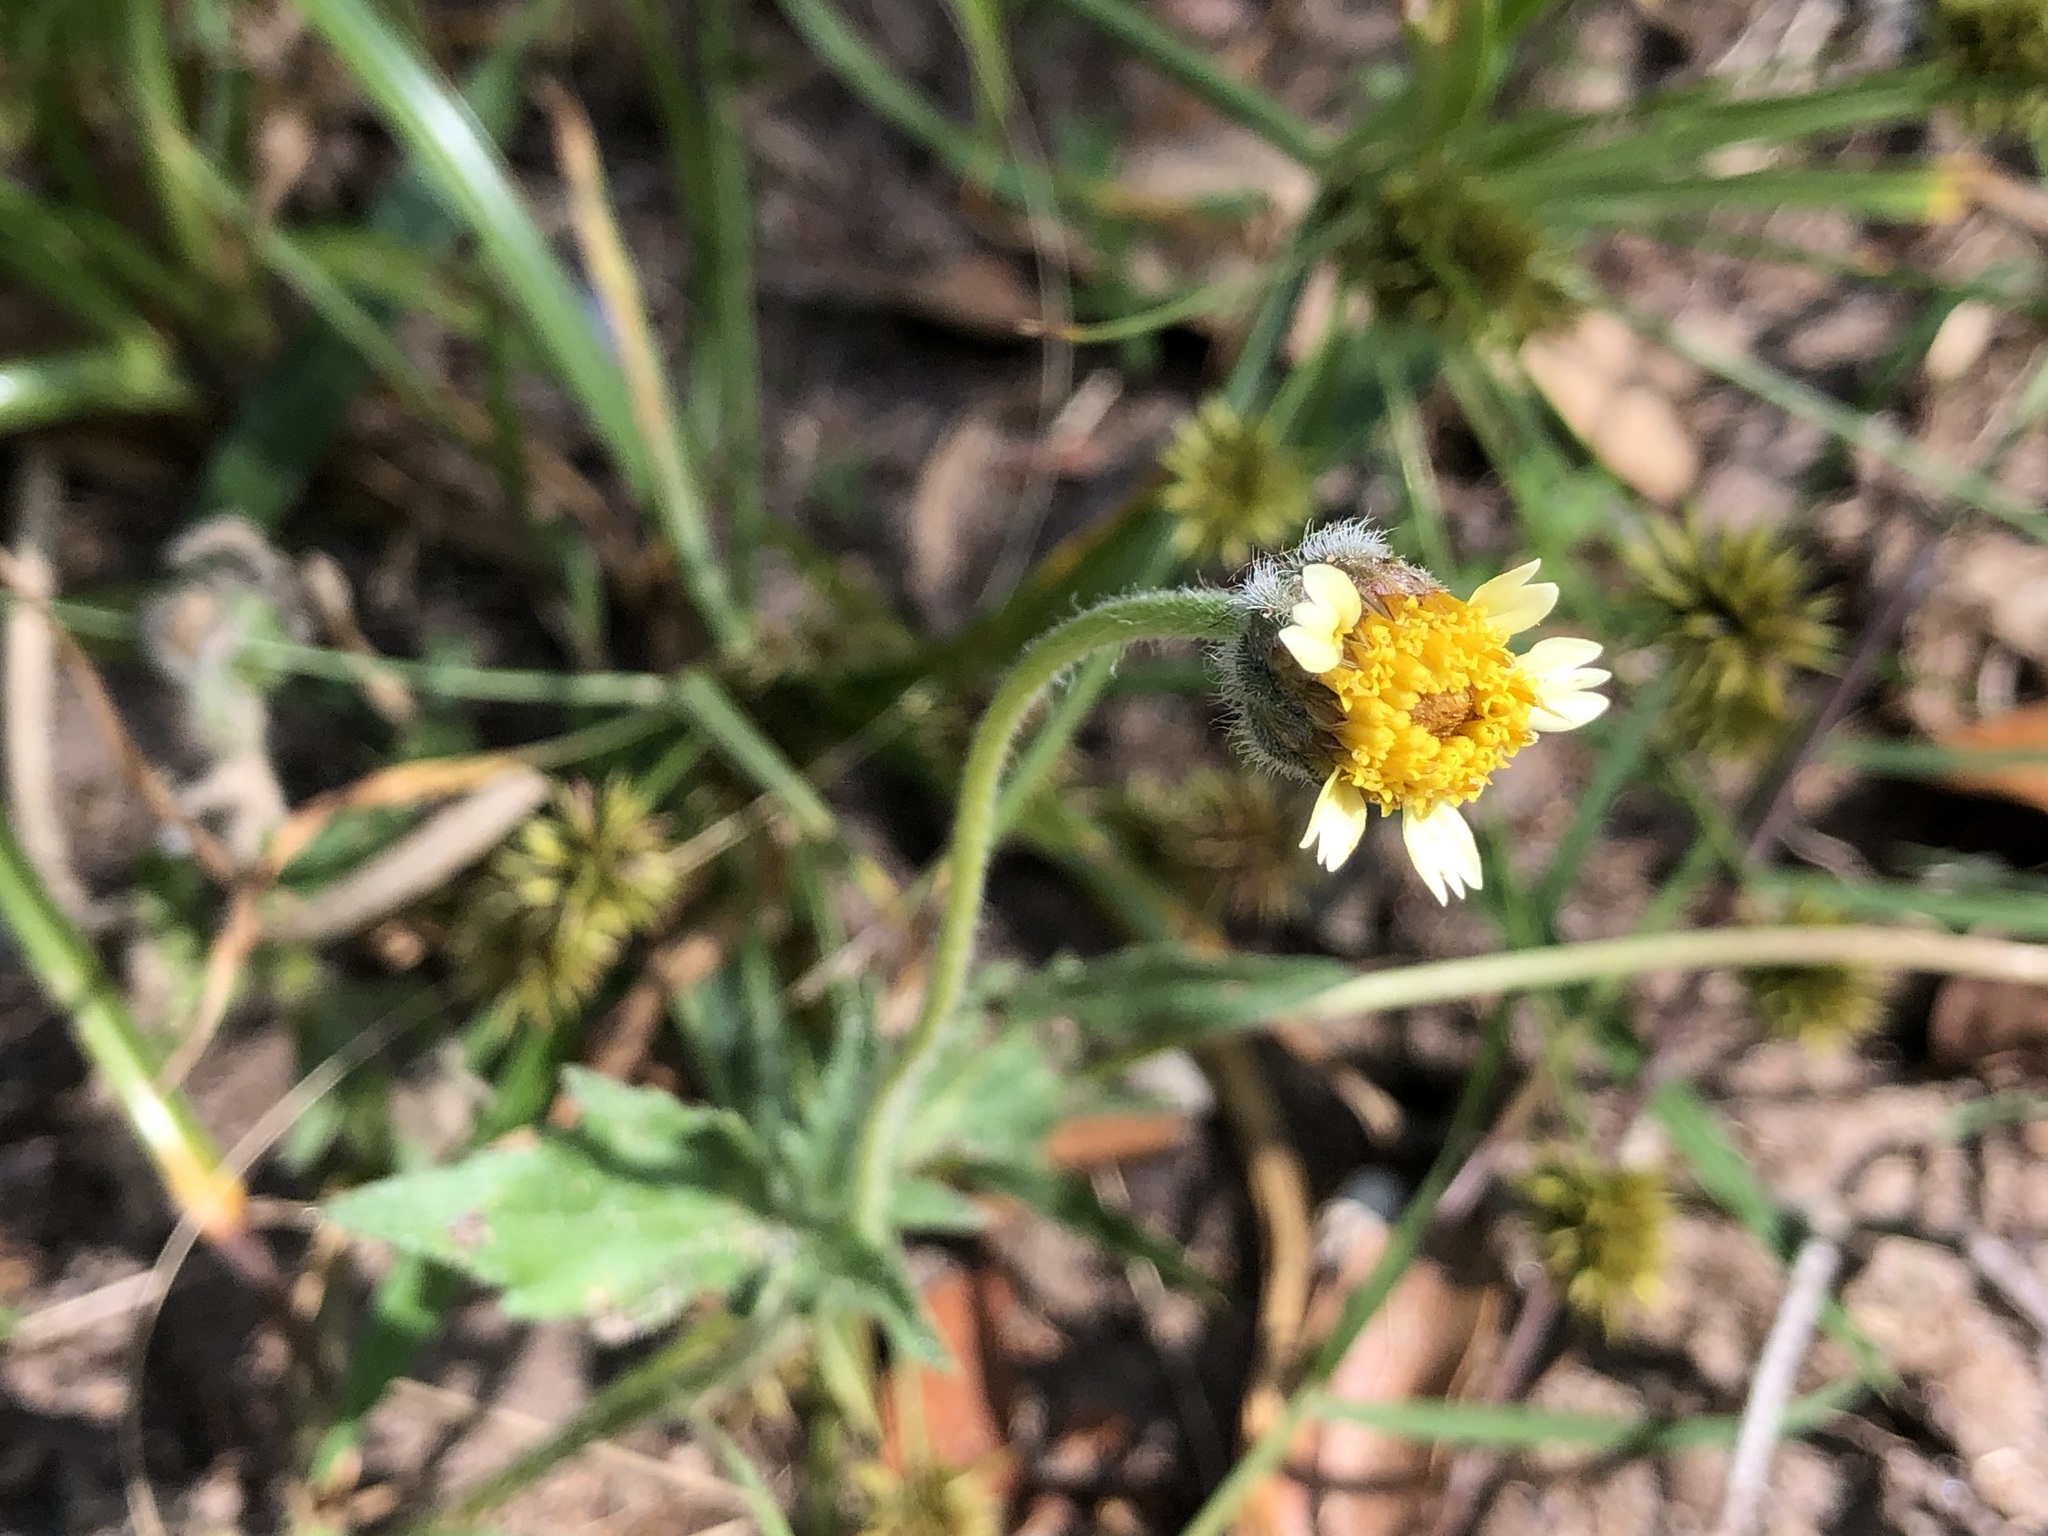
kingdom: Plantae
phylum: Tracheophyta
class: Magnoliopsida
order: Asterales
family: Asteraceae
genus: Tridax
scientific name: Tridax procumbens
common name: Coatbuttons
